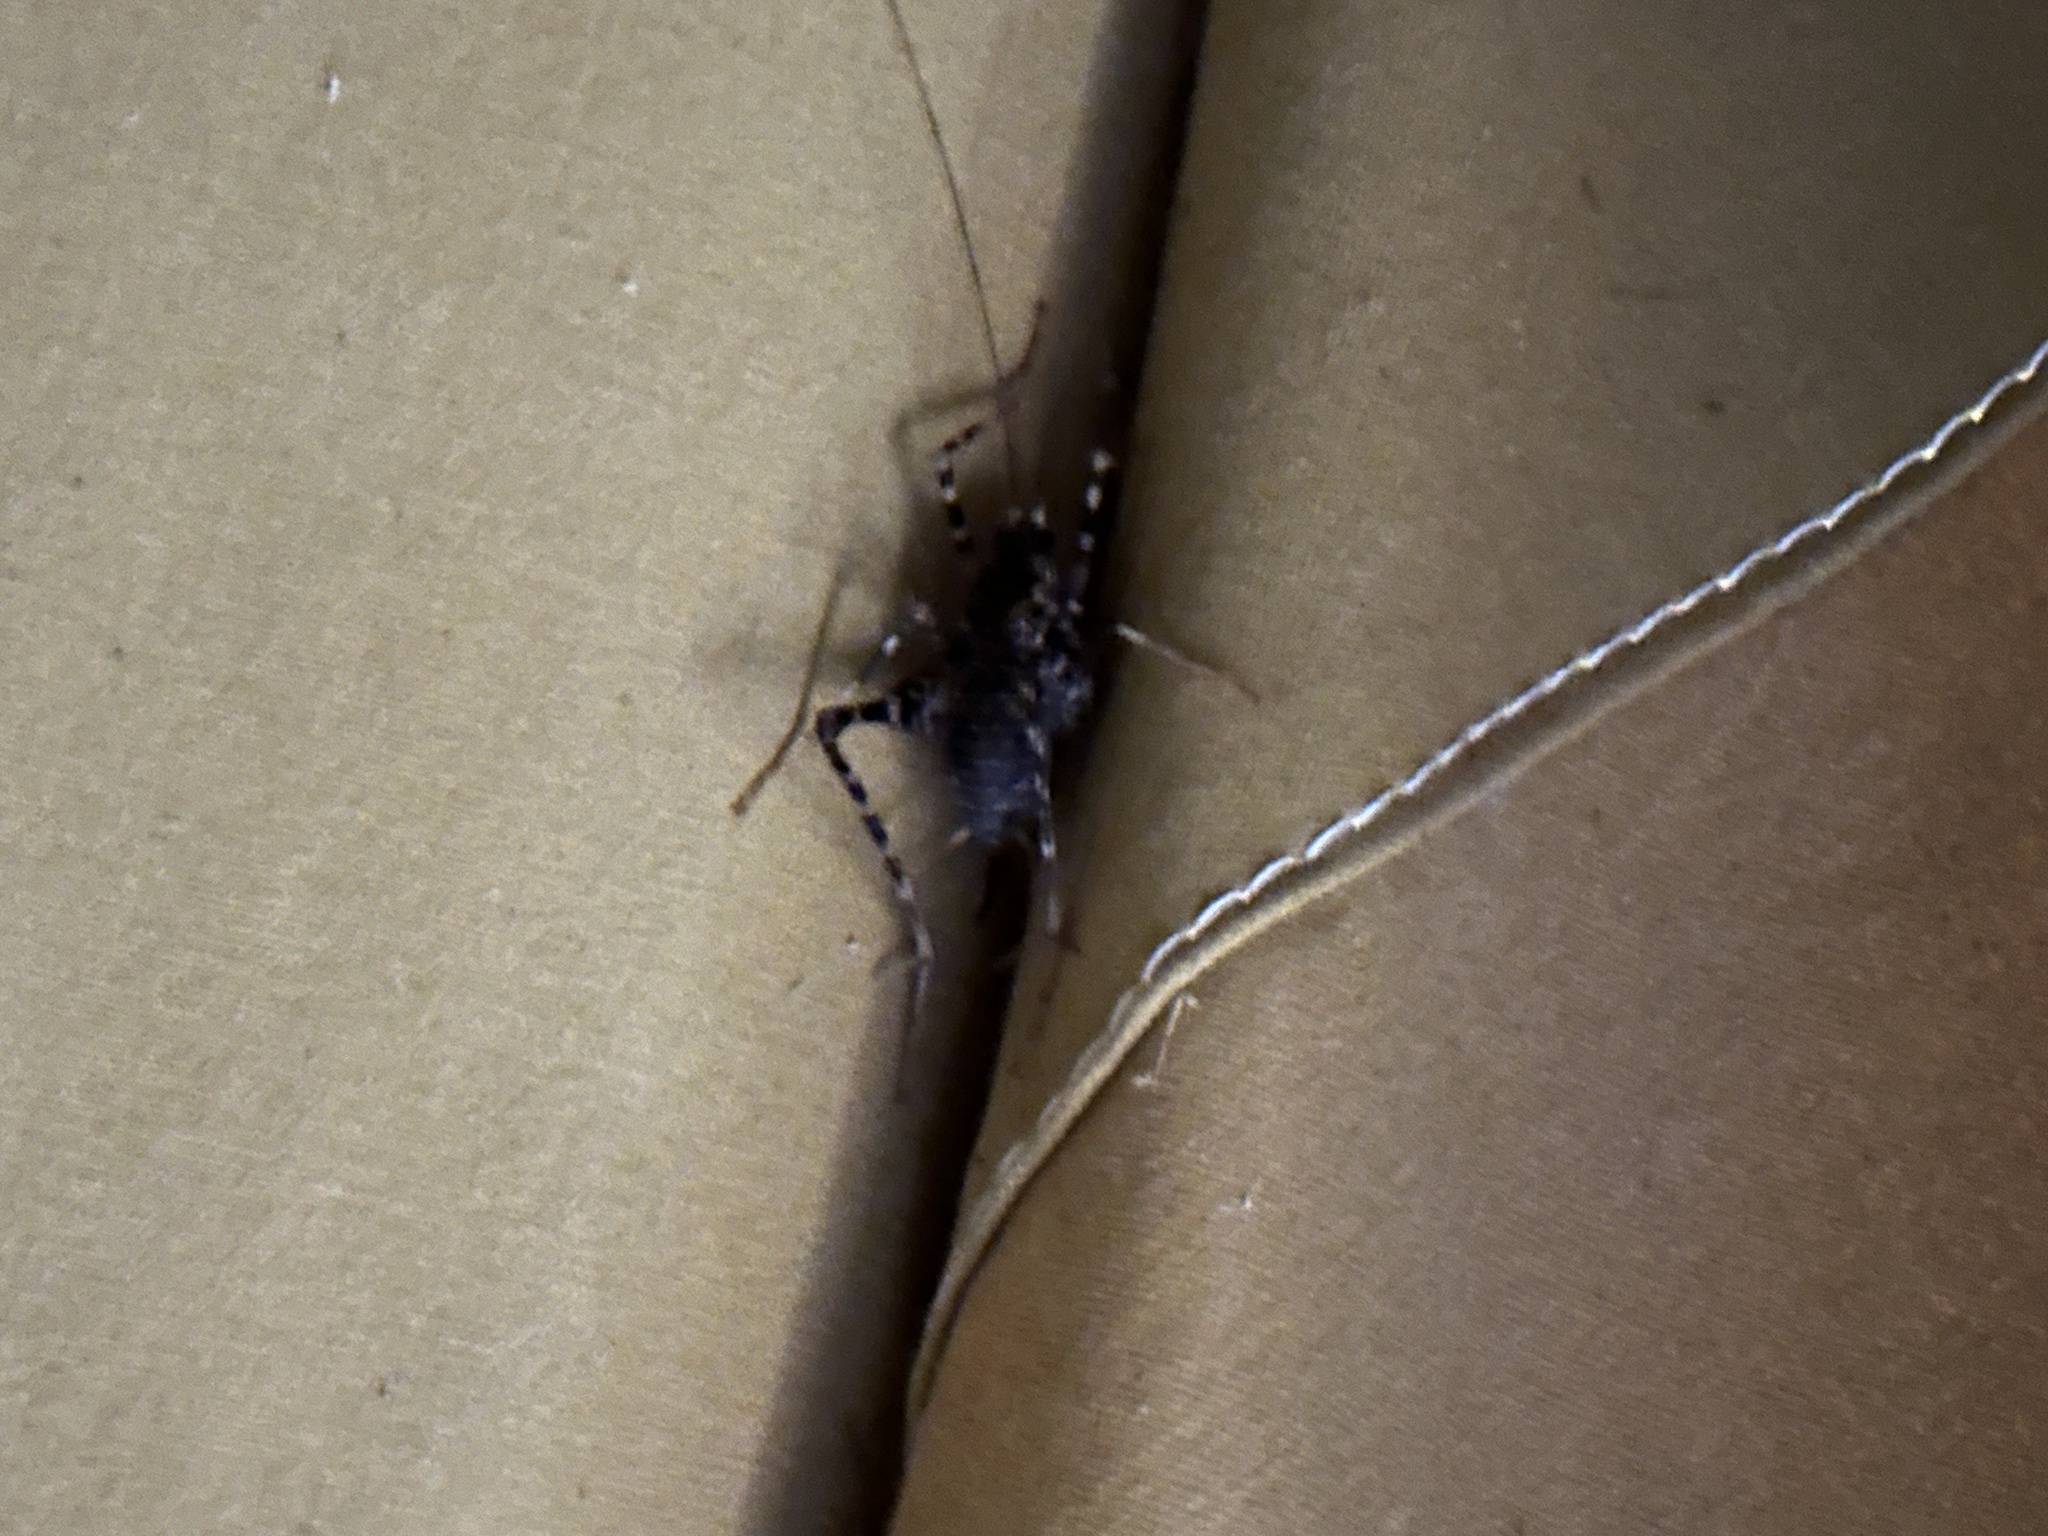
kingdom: Animalia
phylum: Arthropoda
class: Insecta
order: Orthoptera
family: Rhaphidophoridae
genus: Diestrammena
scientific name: Diestrammena japanica
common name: Japanese camel cricket
